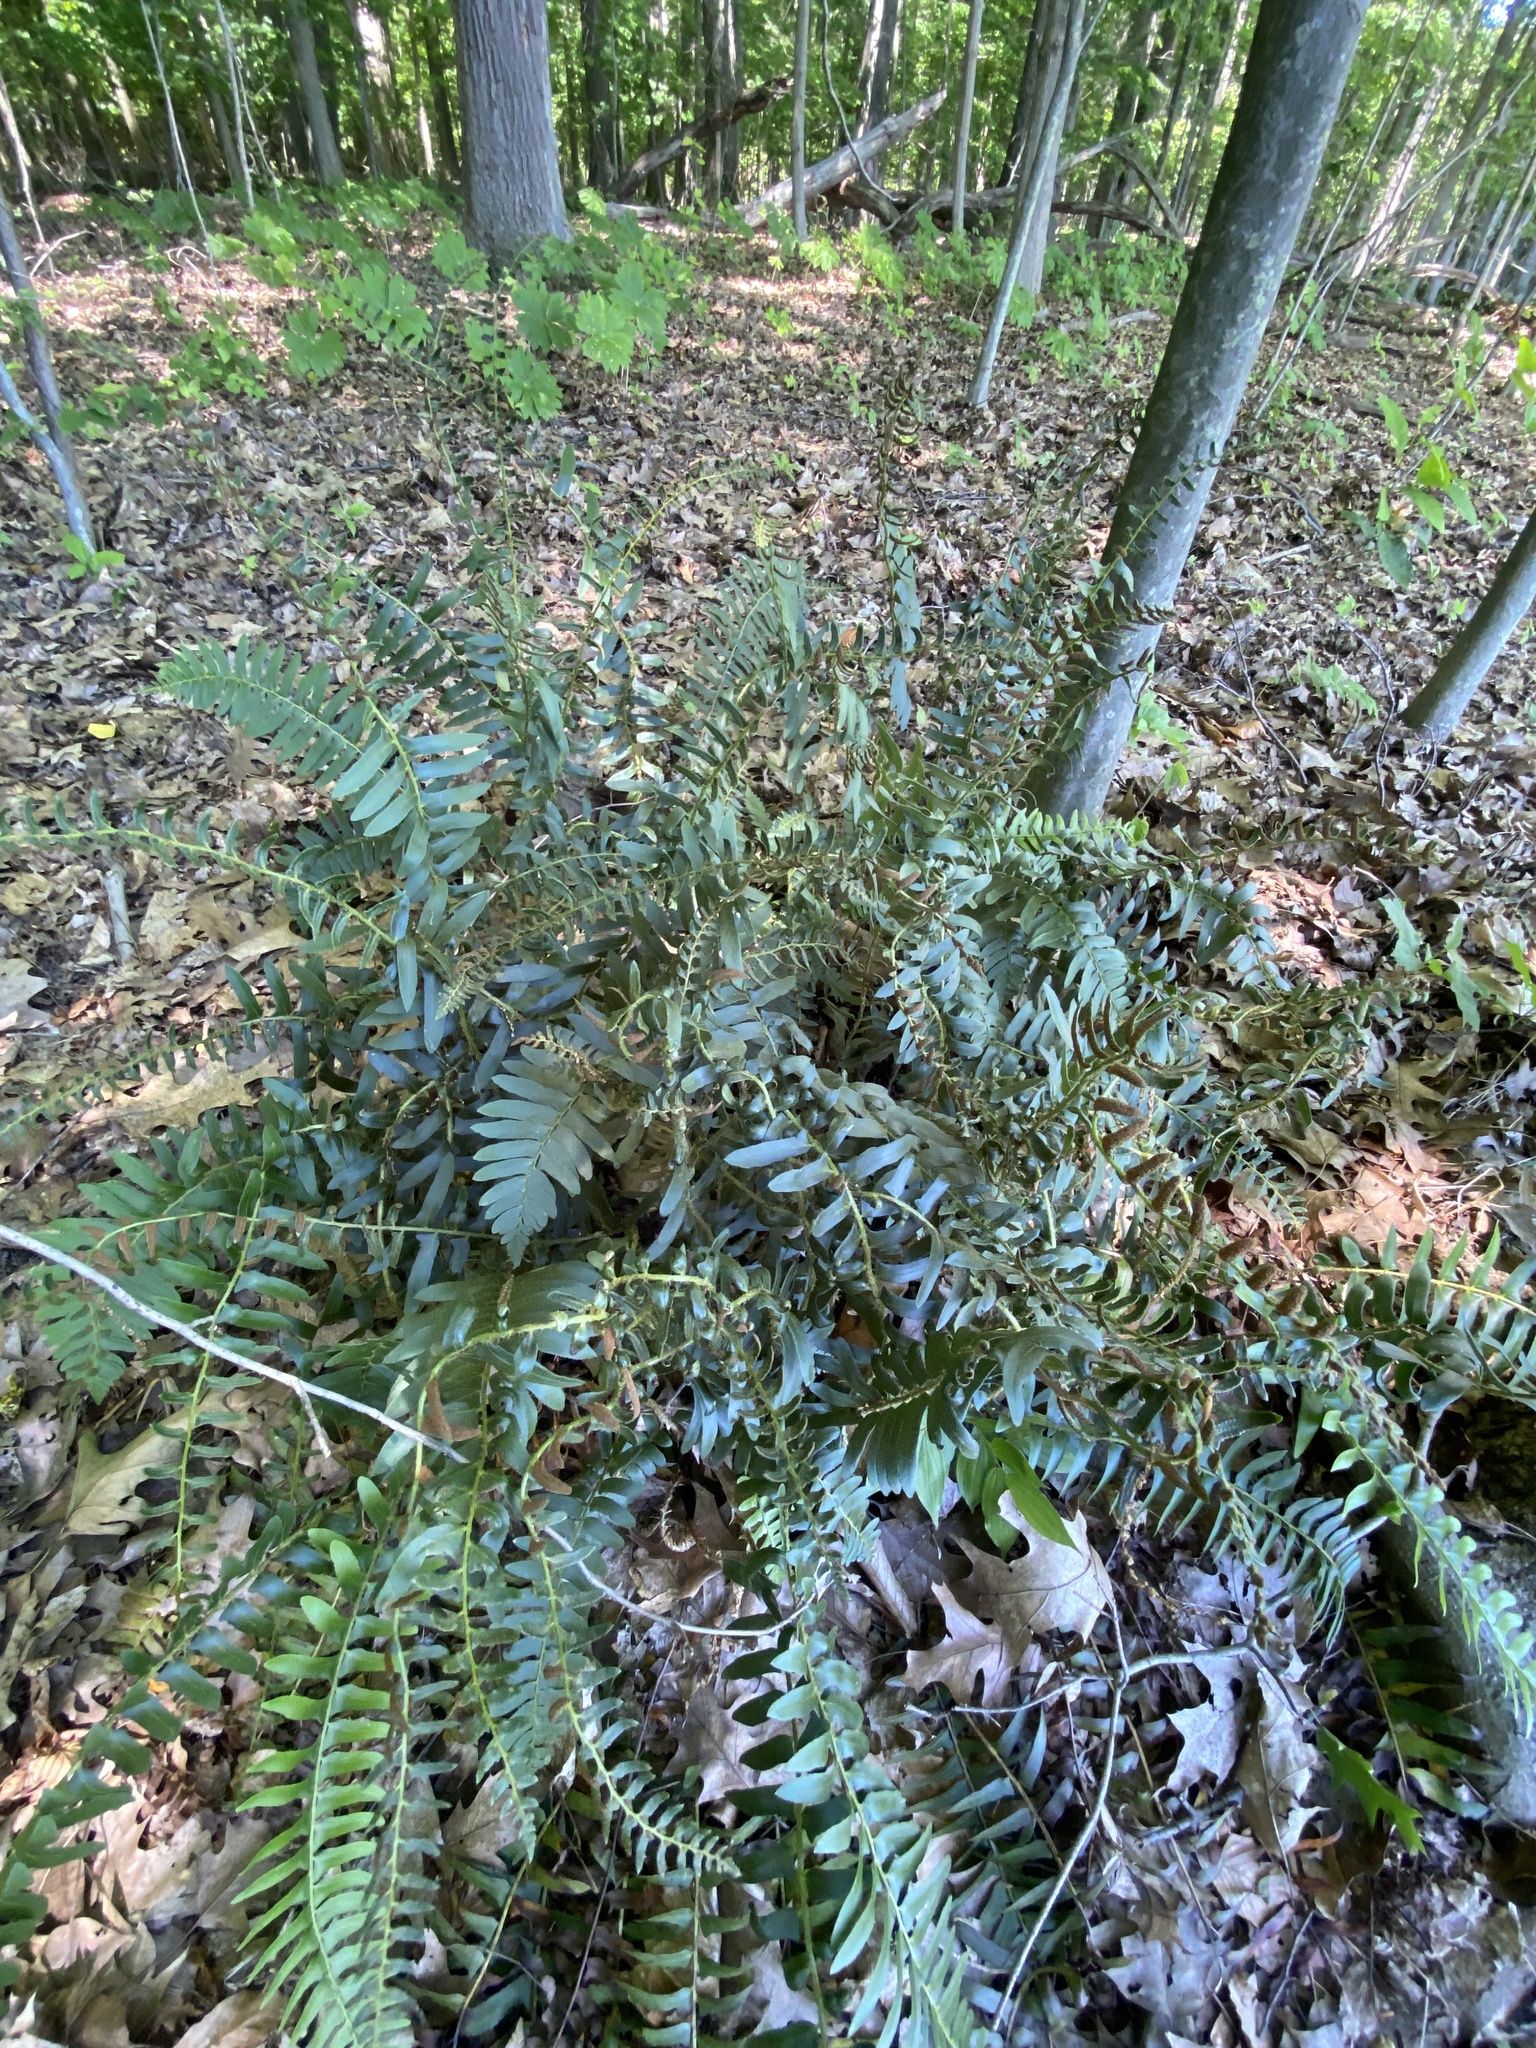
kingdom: Plantae
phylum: Tracheophyta
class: Polypodiopsida
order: Polypodiales
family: Dryopteridaceae
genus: Polystichum
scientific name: Polystichum acrostichoides
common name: Christmas fern
